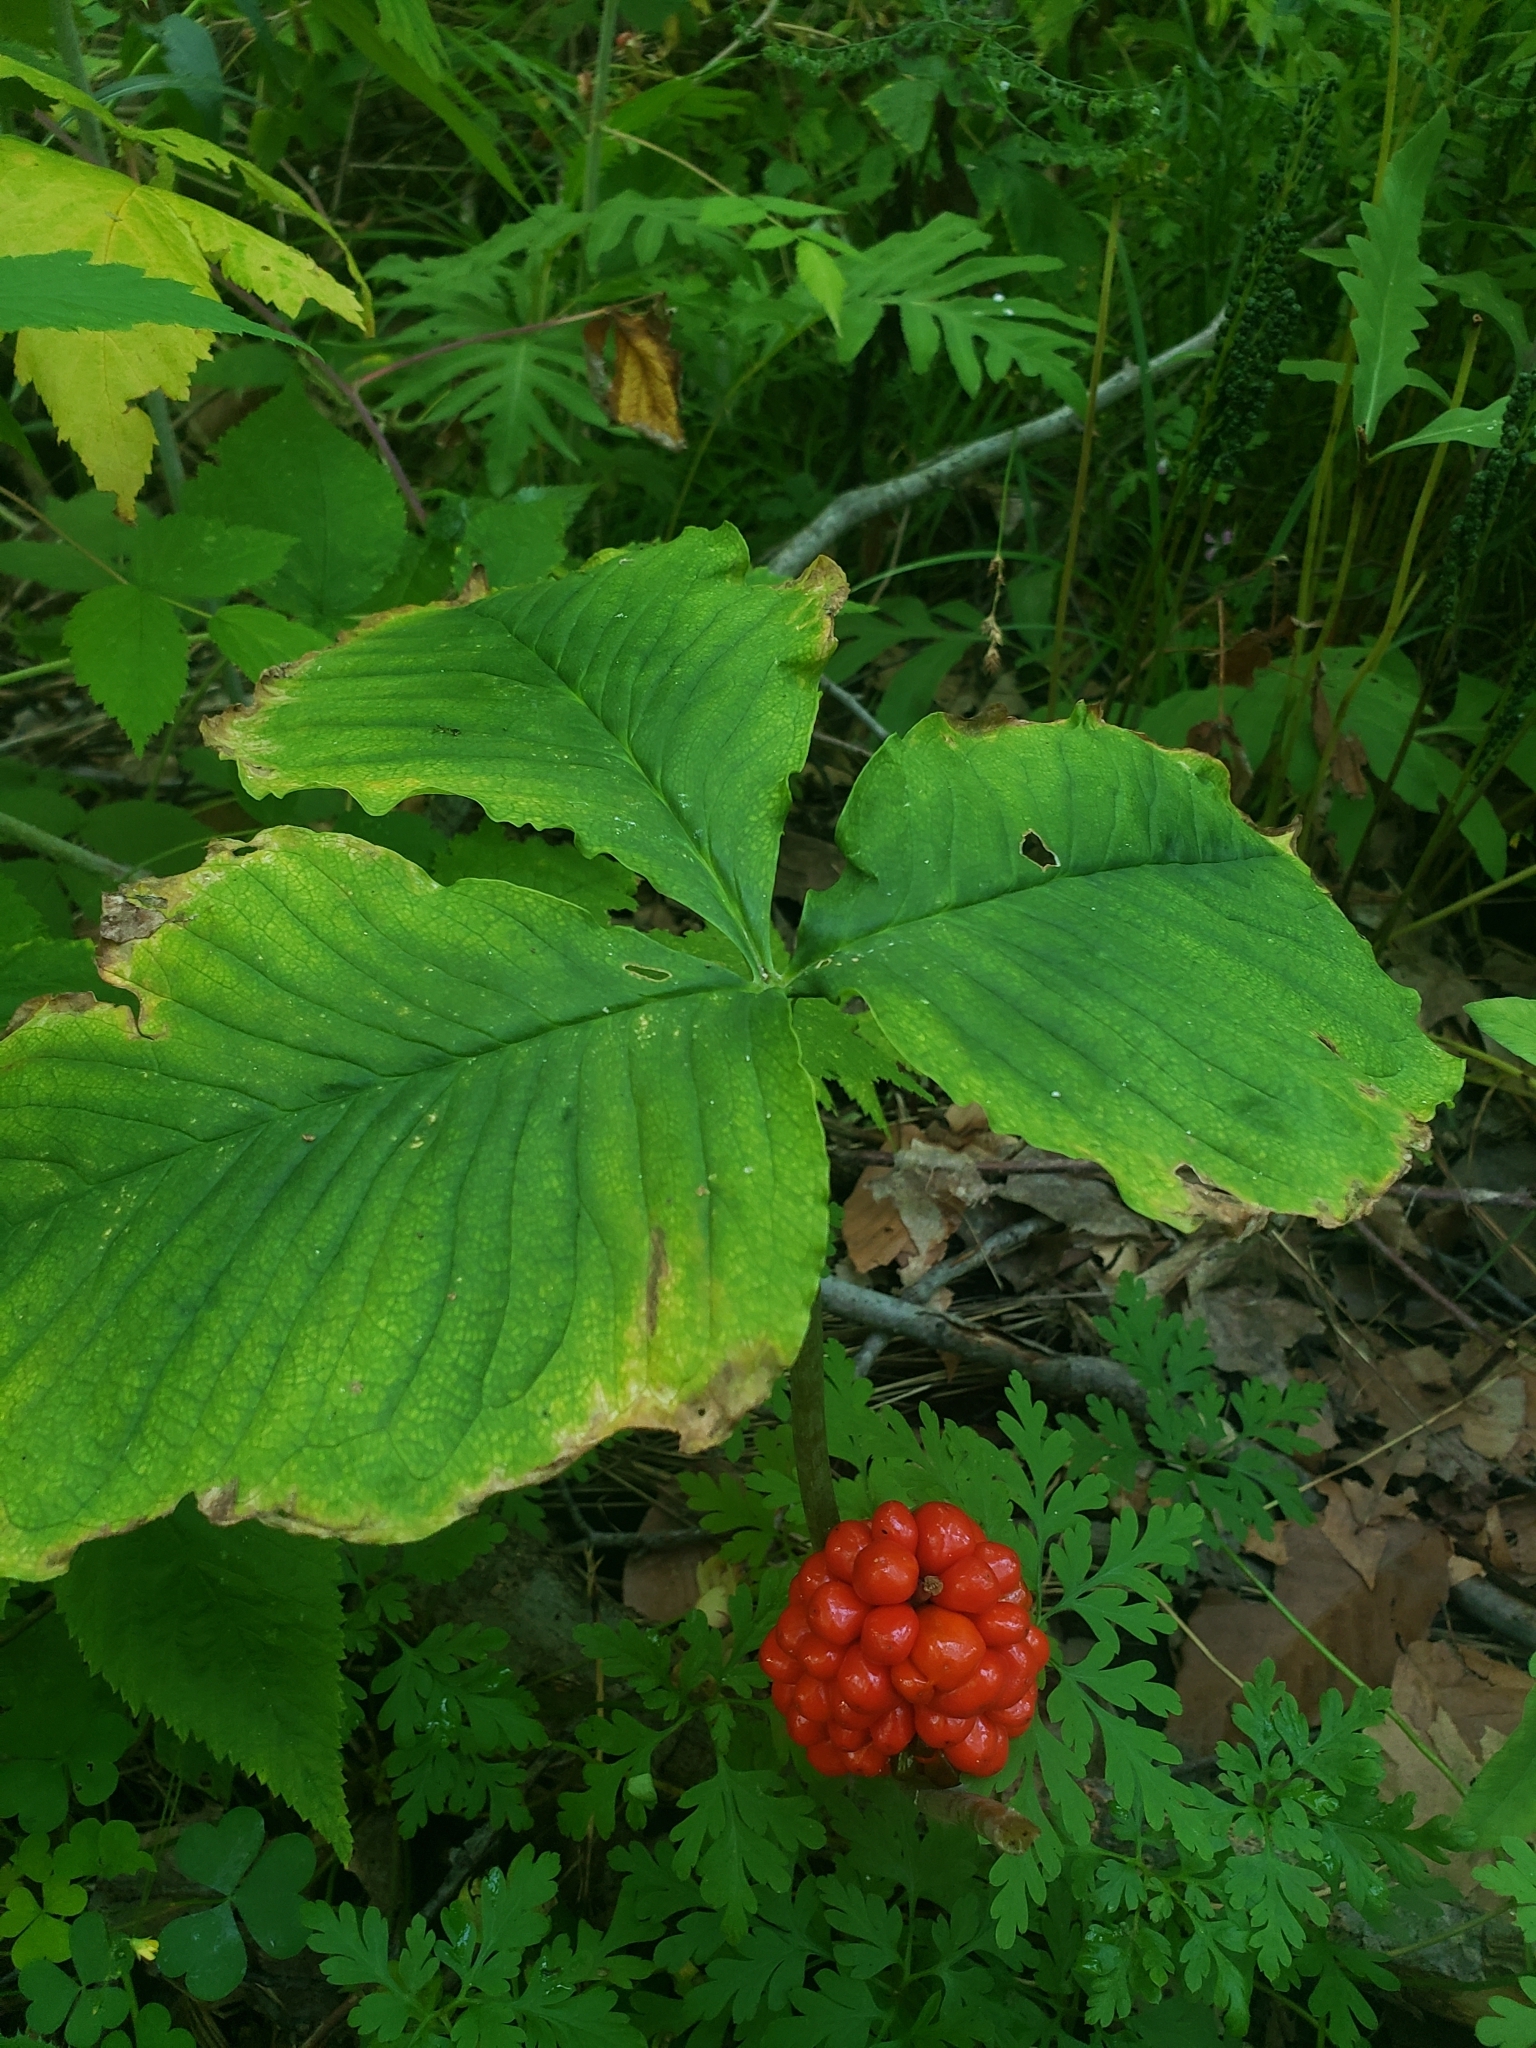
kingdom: Plantae
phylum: Tracheophyta
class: Liliopsida
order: Alismatales
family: Araceae
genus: Arisaema
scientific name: Arisaema triphyllum
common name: Jack-in-the-pulpit
